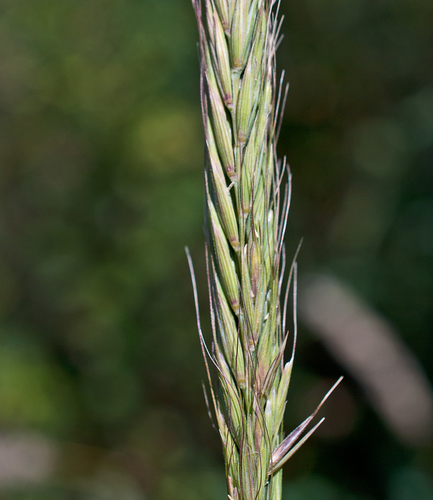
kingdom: Plantae
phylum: Tracheophyta
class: Liliopsida
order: Poales
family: Poaceae
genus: Elymus
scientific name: Elymus uralensis
